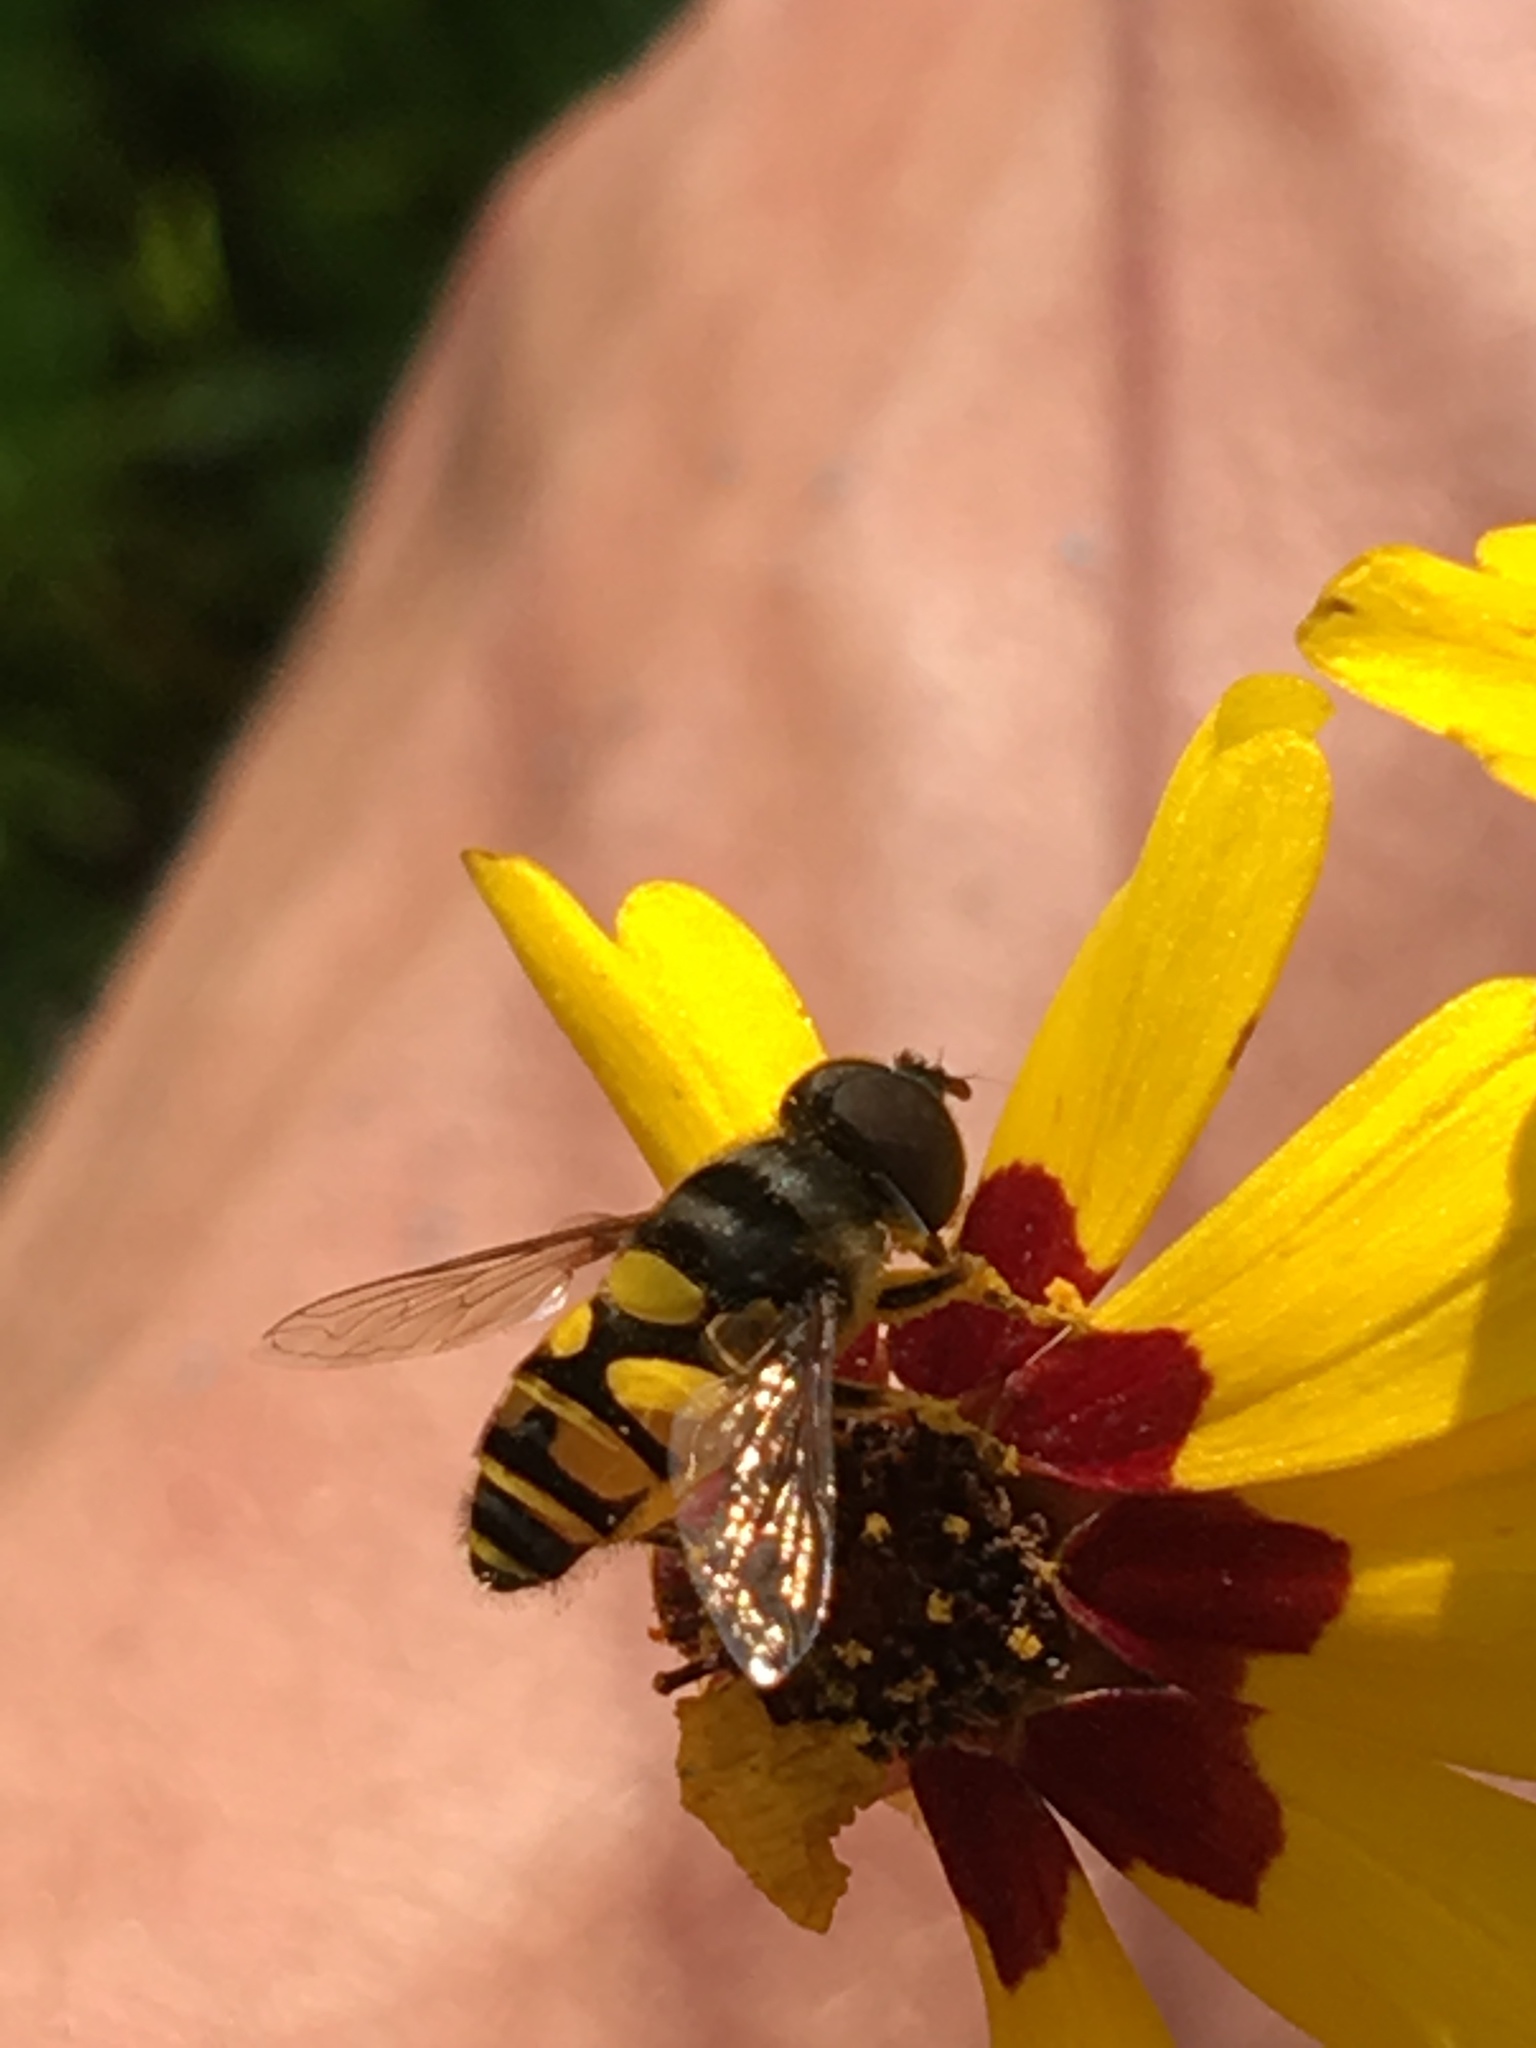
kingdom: Animalia
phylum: Arthropoda
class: Insecta
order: Diptera
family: Syrphidae
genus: Eristalis
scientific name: Eristalis transversa
